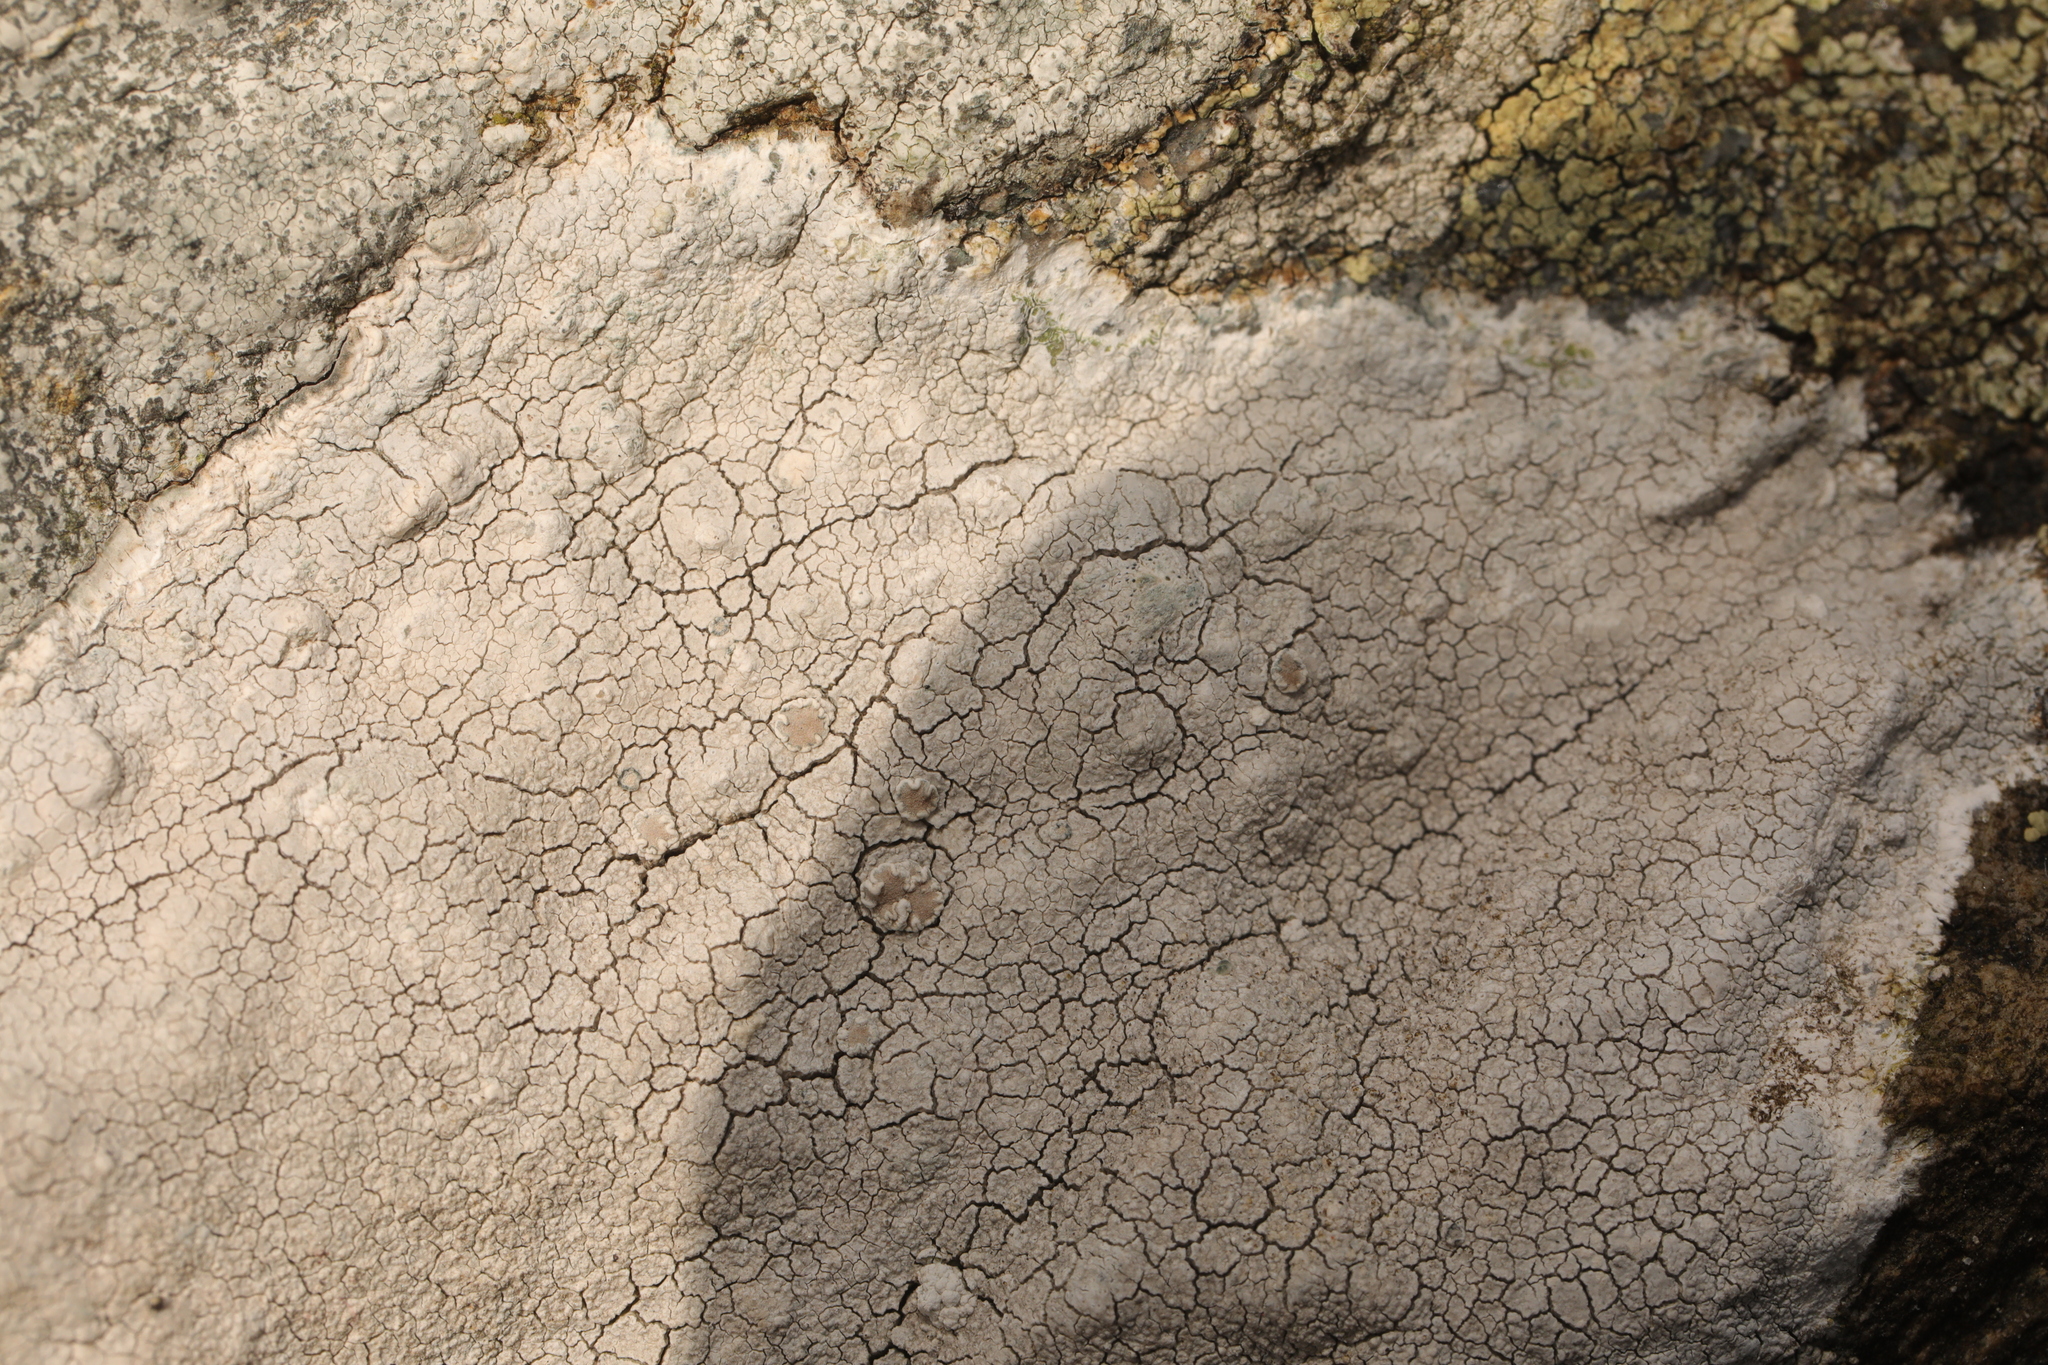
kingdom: Fungi
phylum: Ascomycota
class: Lecanoromycetes
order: Lecanorales
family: Lecanoraceae
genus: Glaucomaria
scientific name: Glaucomaria rupicola
